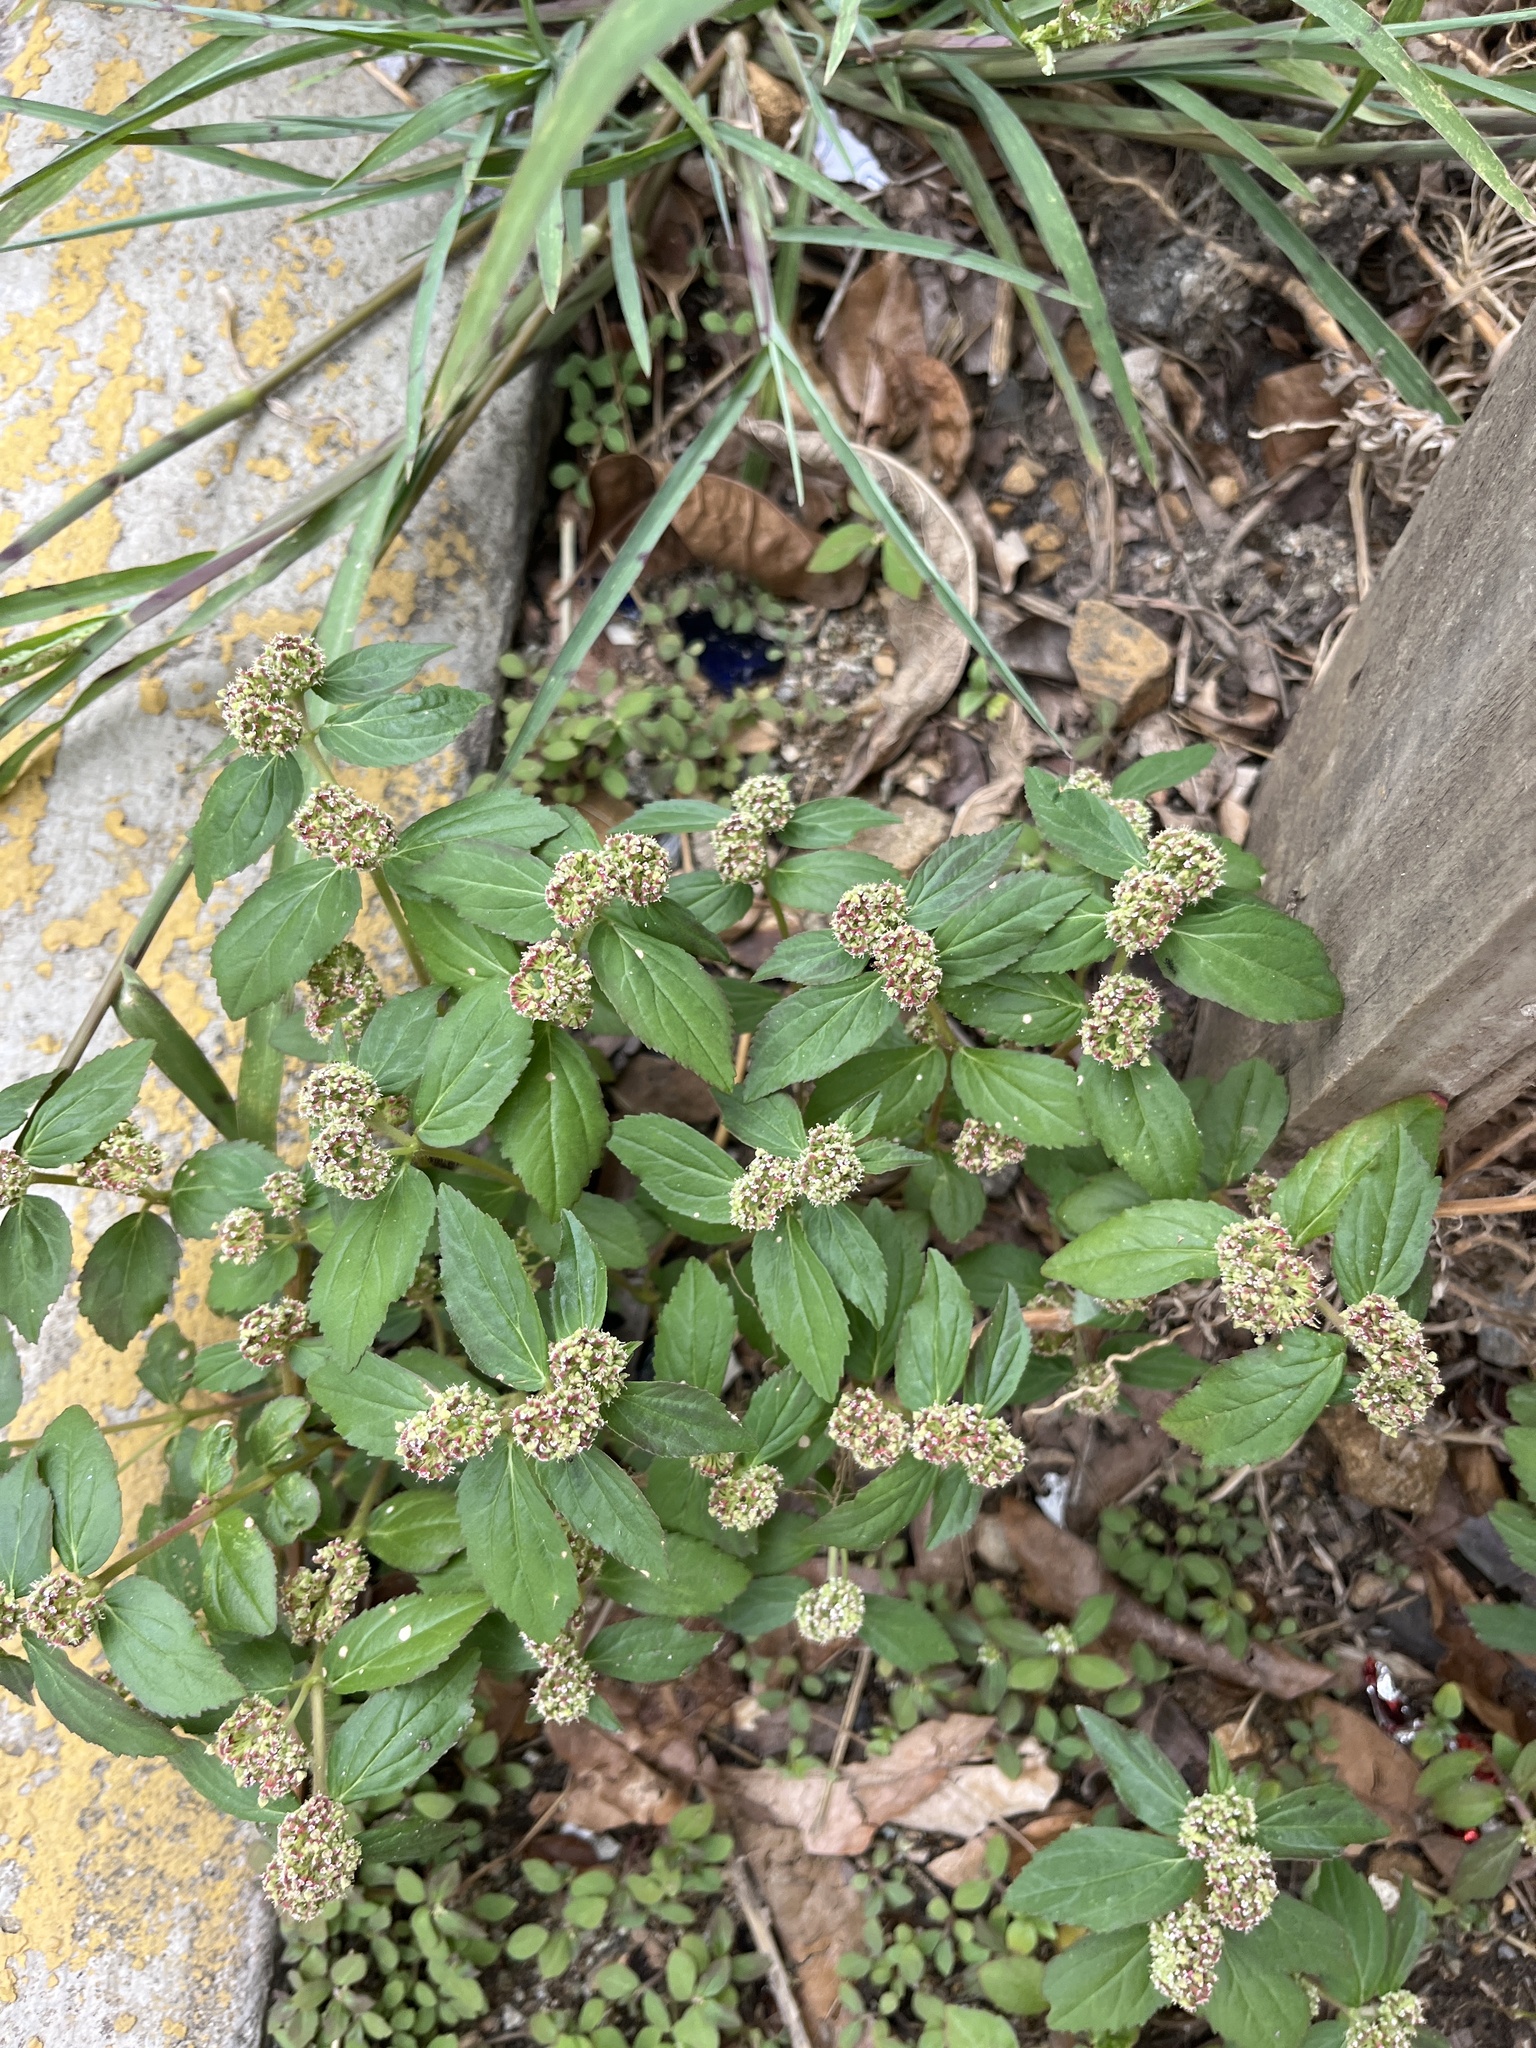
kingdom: Plantae
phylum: Tracheophyta
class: Magnoliopsida
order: Malpighiales
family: Euphorbiaceae
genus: Euphorbia
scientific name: Euphorbia hirta
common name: Pillpod sandmat
